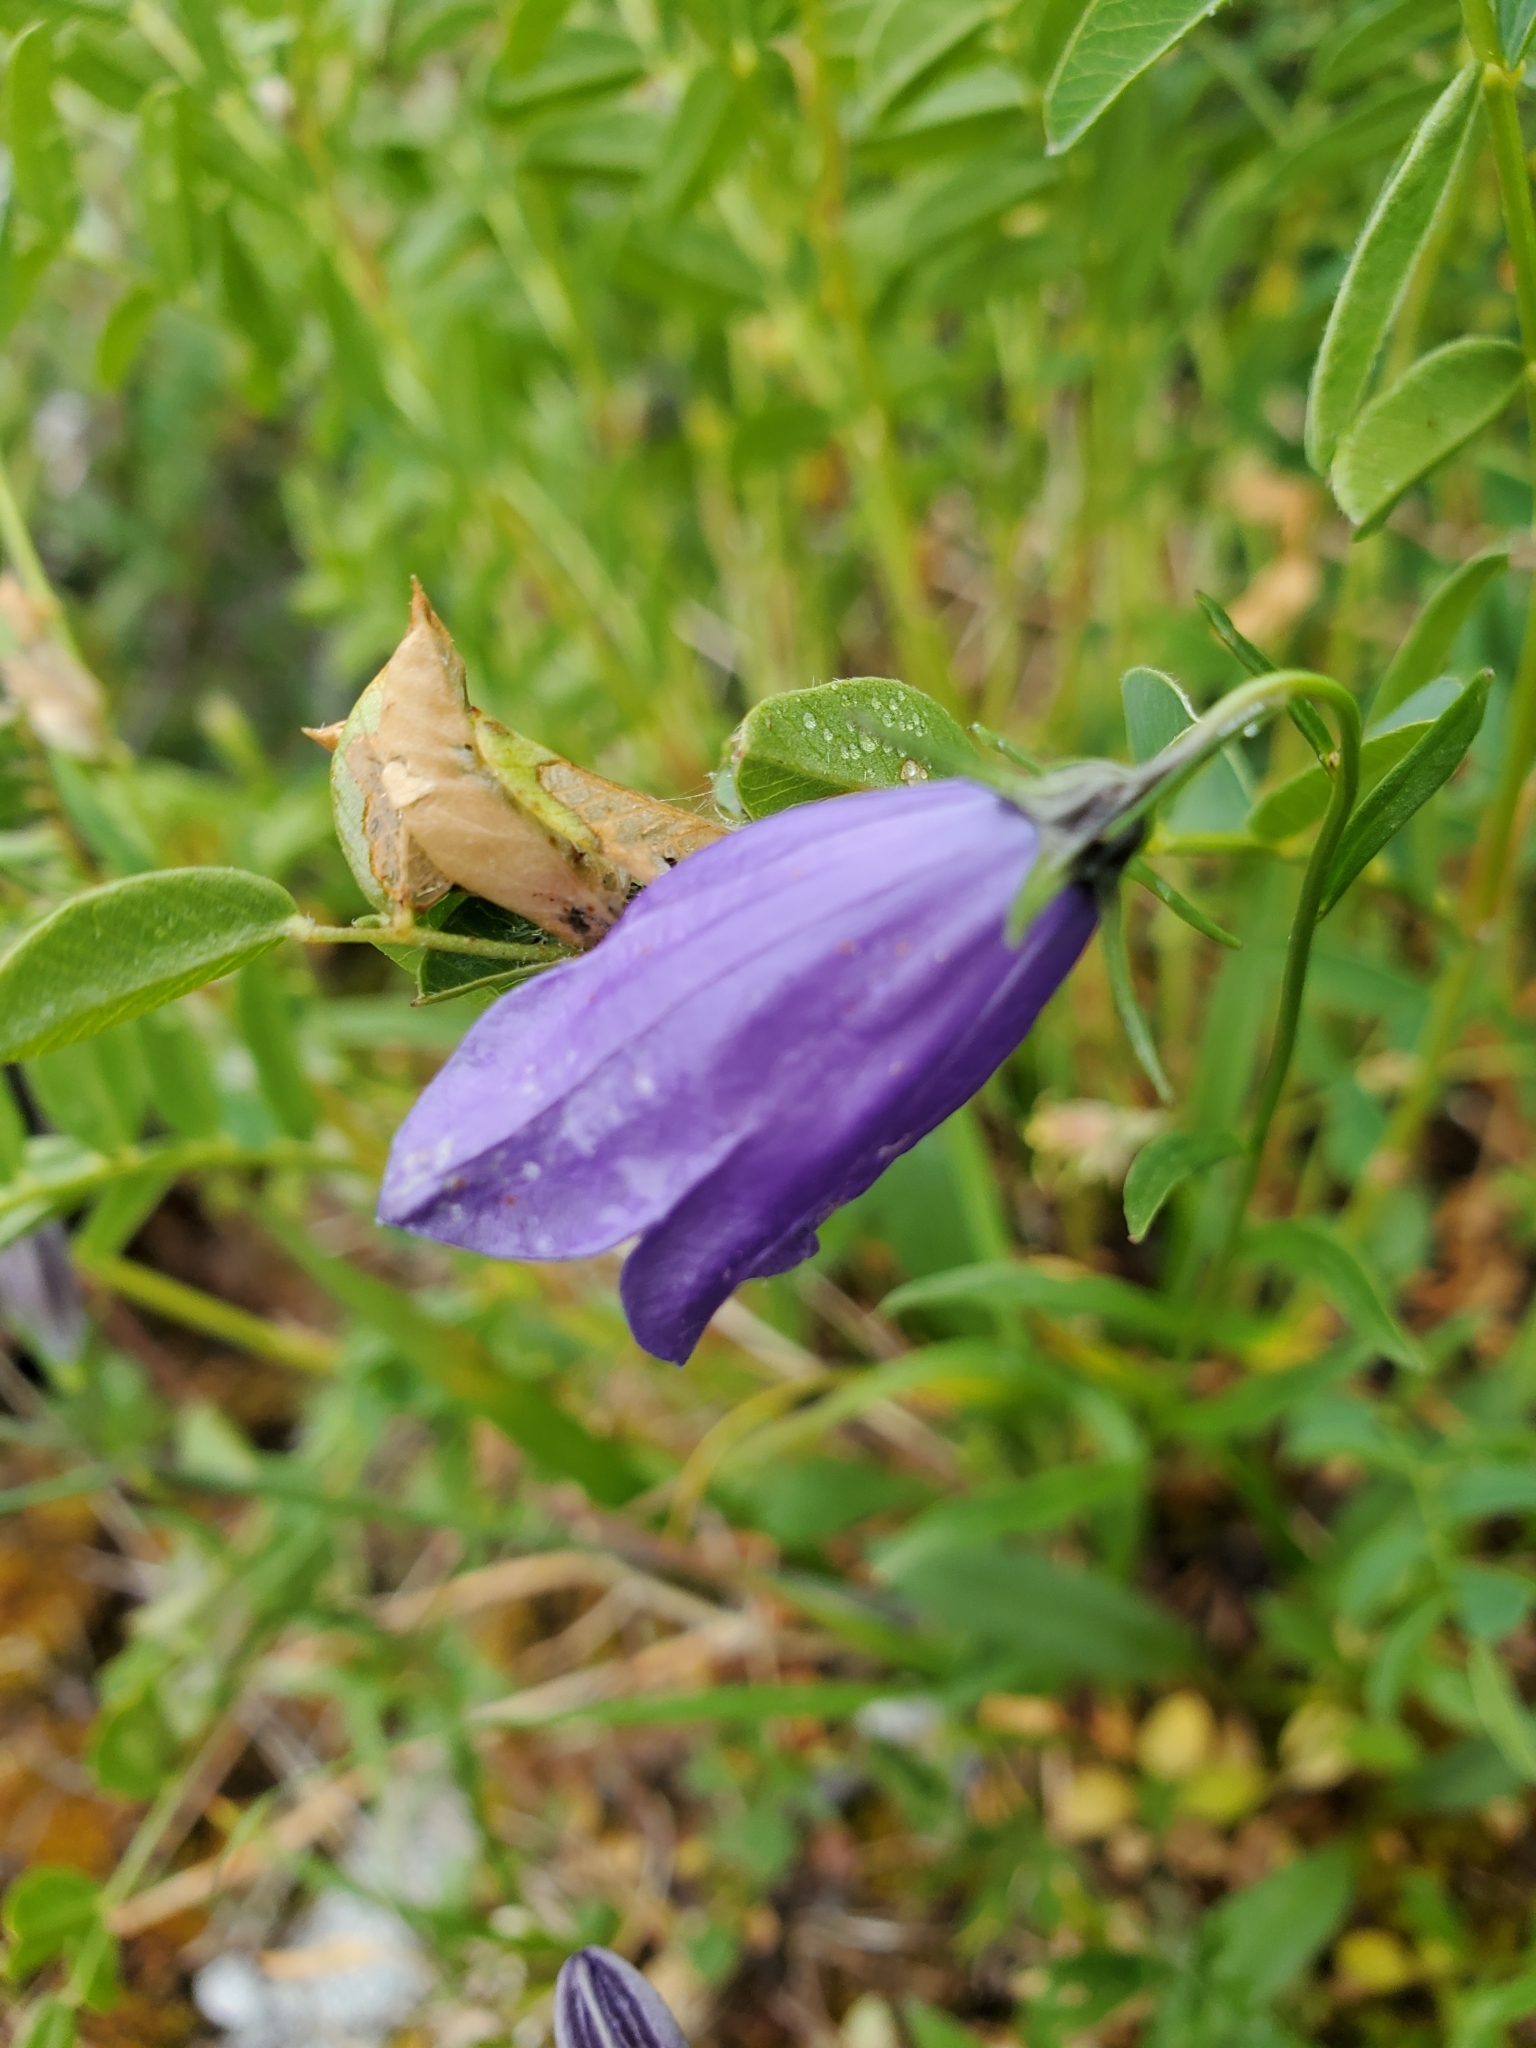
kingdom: Plantae
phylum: Tracheophyta
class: Magnoliopsida
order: Asterales
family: Campanulaceae
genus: Campanula
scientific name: Campanula alaskana
